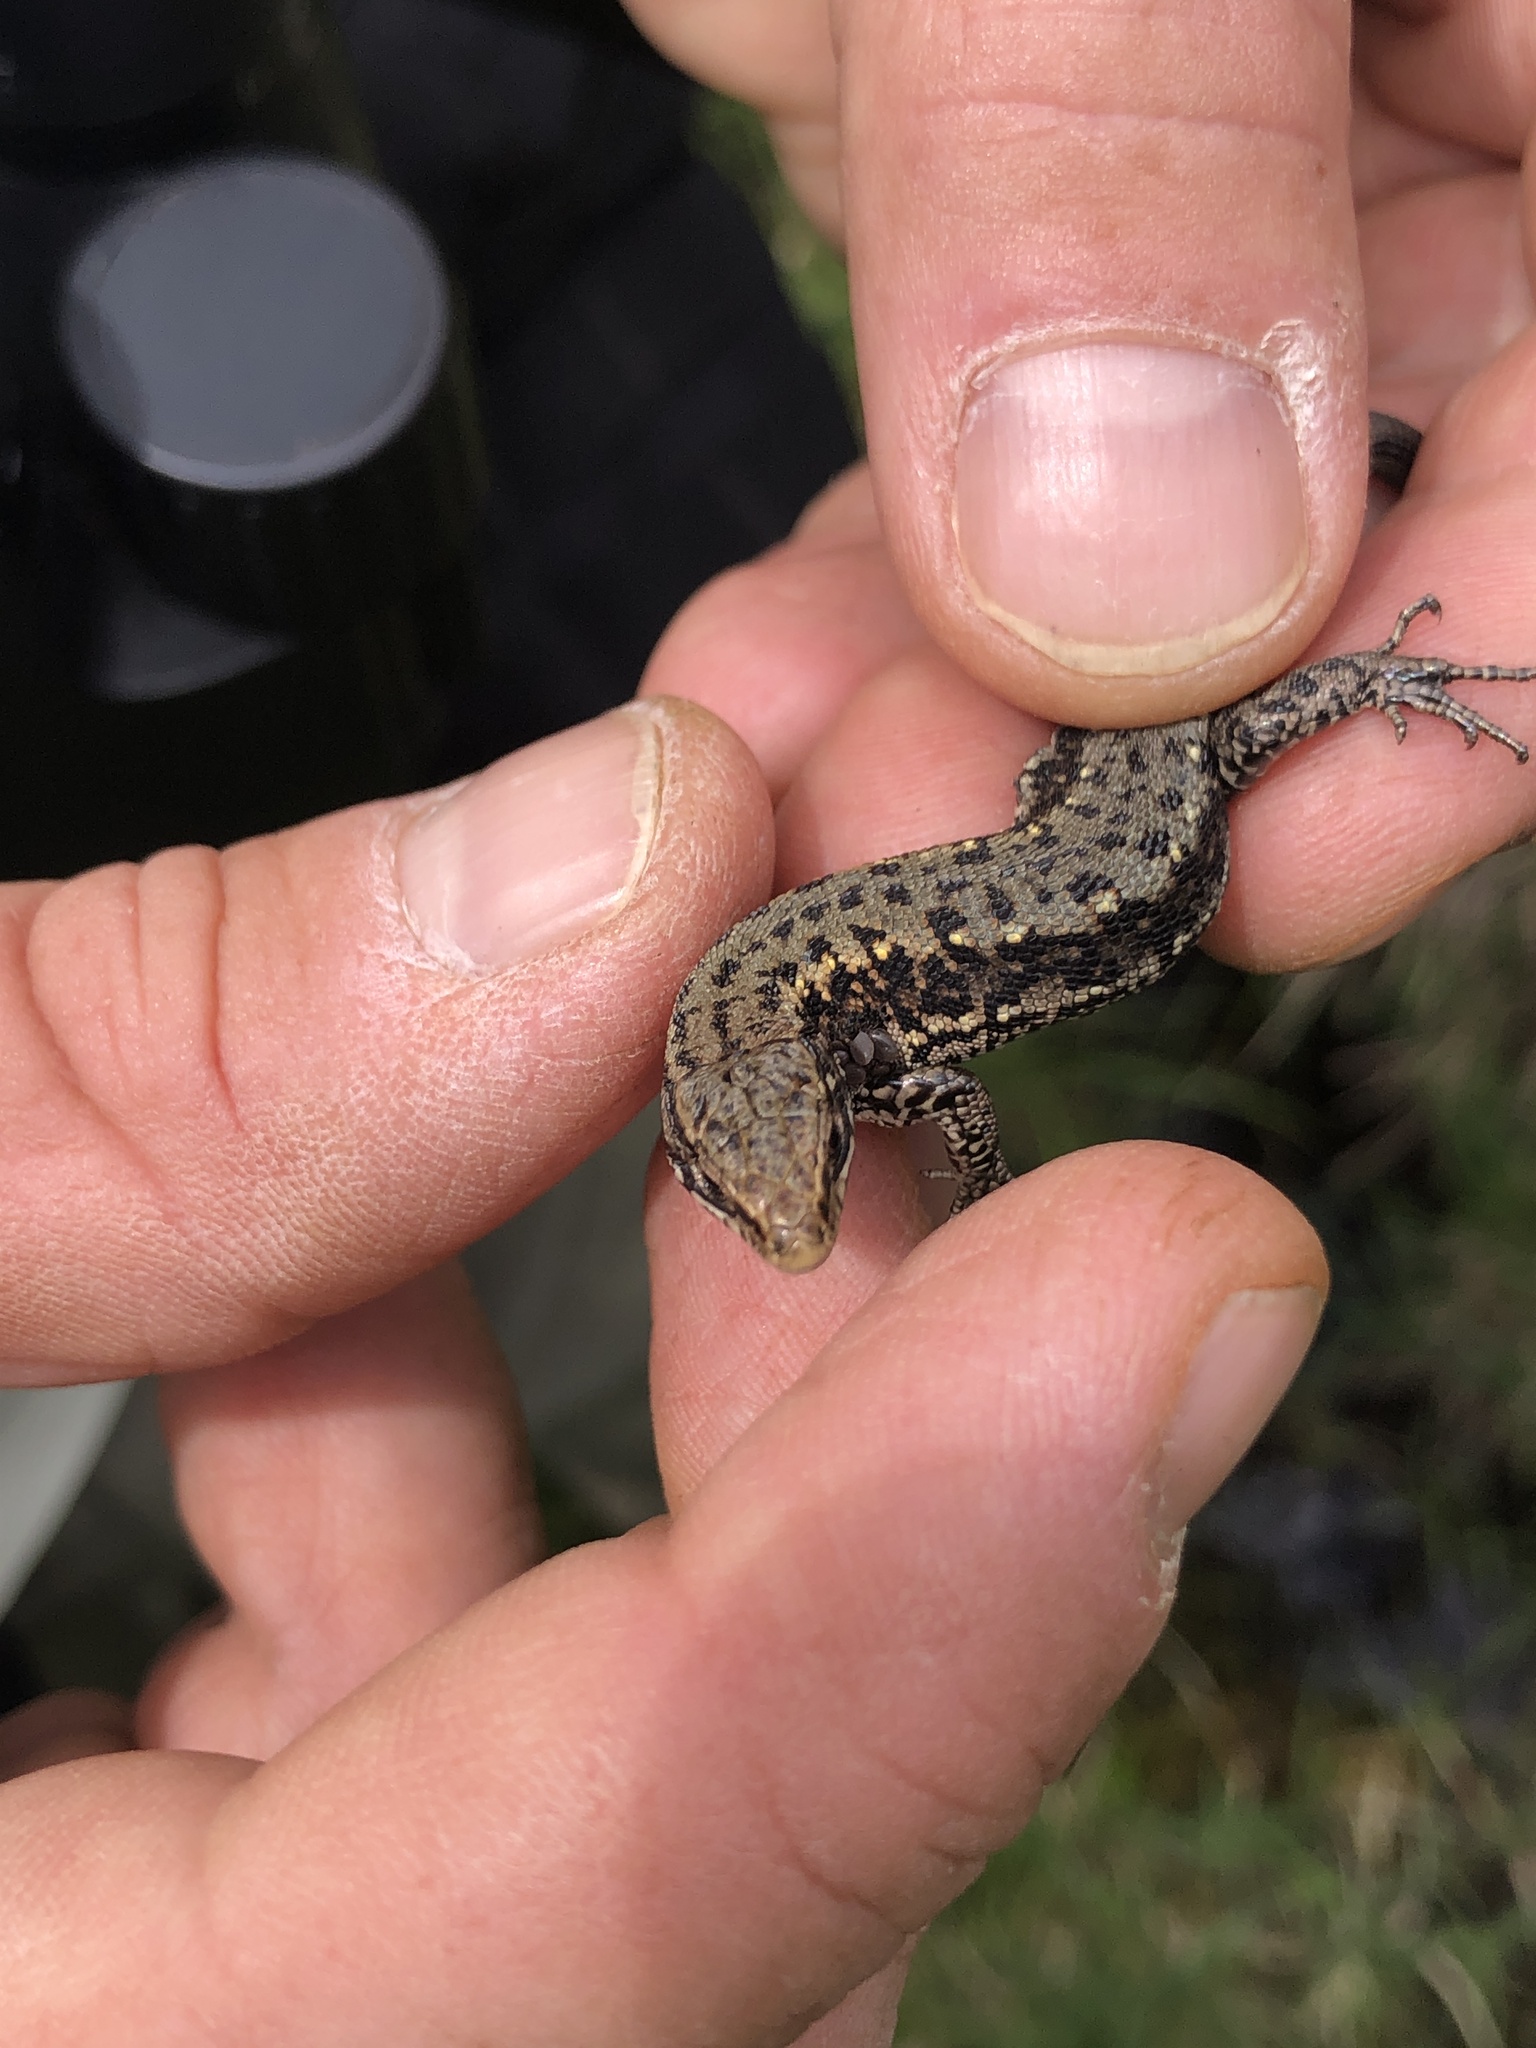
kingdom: Animalia
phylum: Chordata
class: Squamata
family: Lacertidae
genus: Zootoca
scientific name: Zootoca
